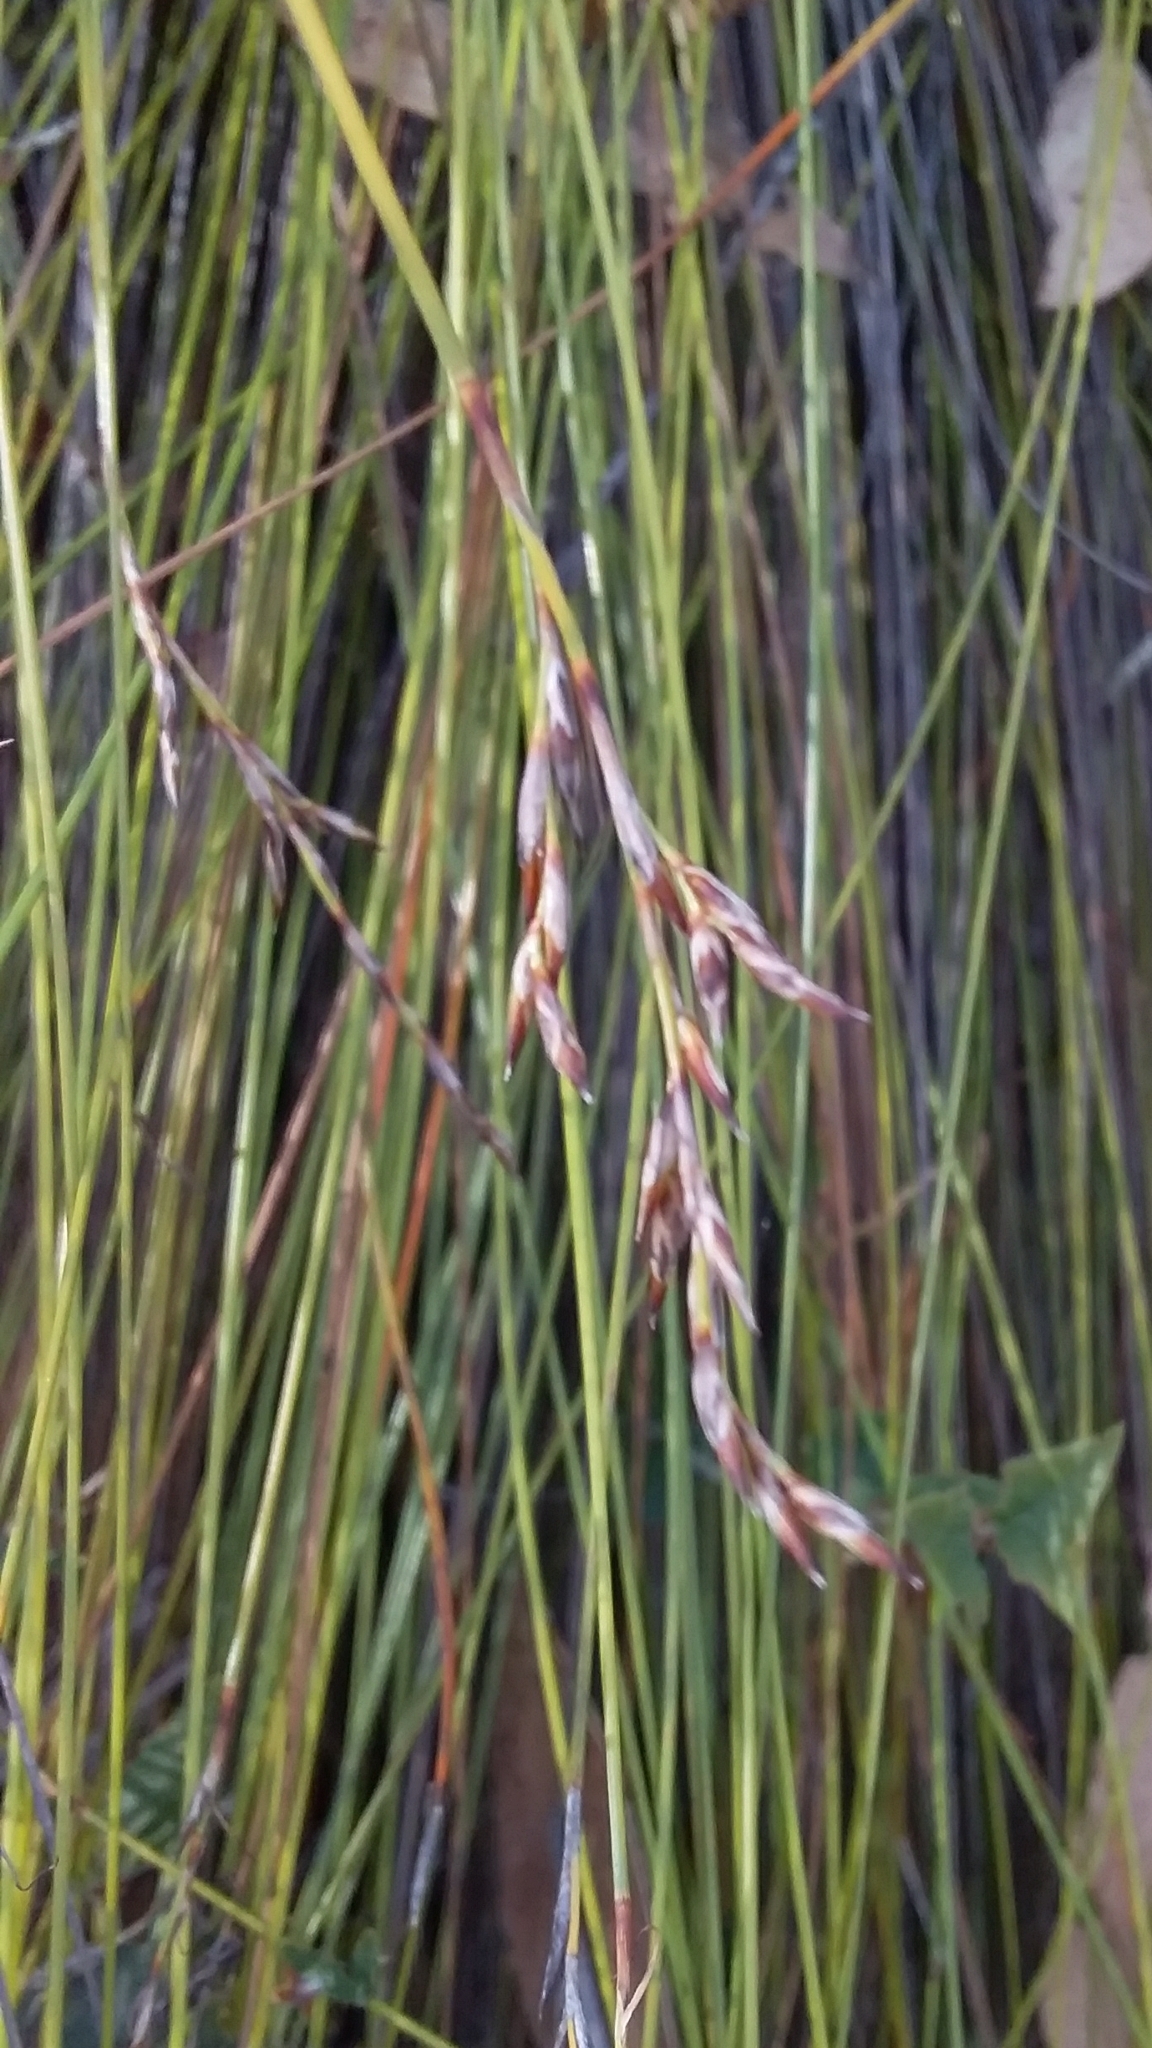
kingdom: Plantae
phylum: Tracheophyta
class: Liliopsida
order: Poales
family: Cyperaceae
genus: Lepidosperma
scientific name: Lepidosperma semiteres
